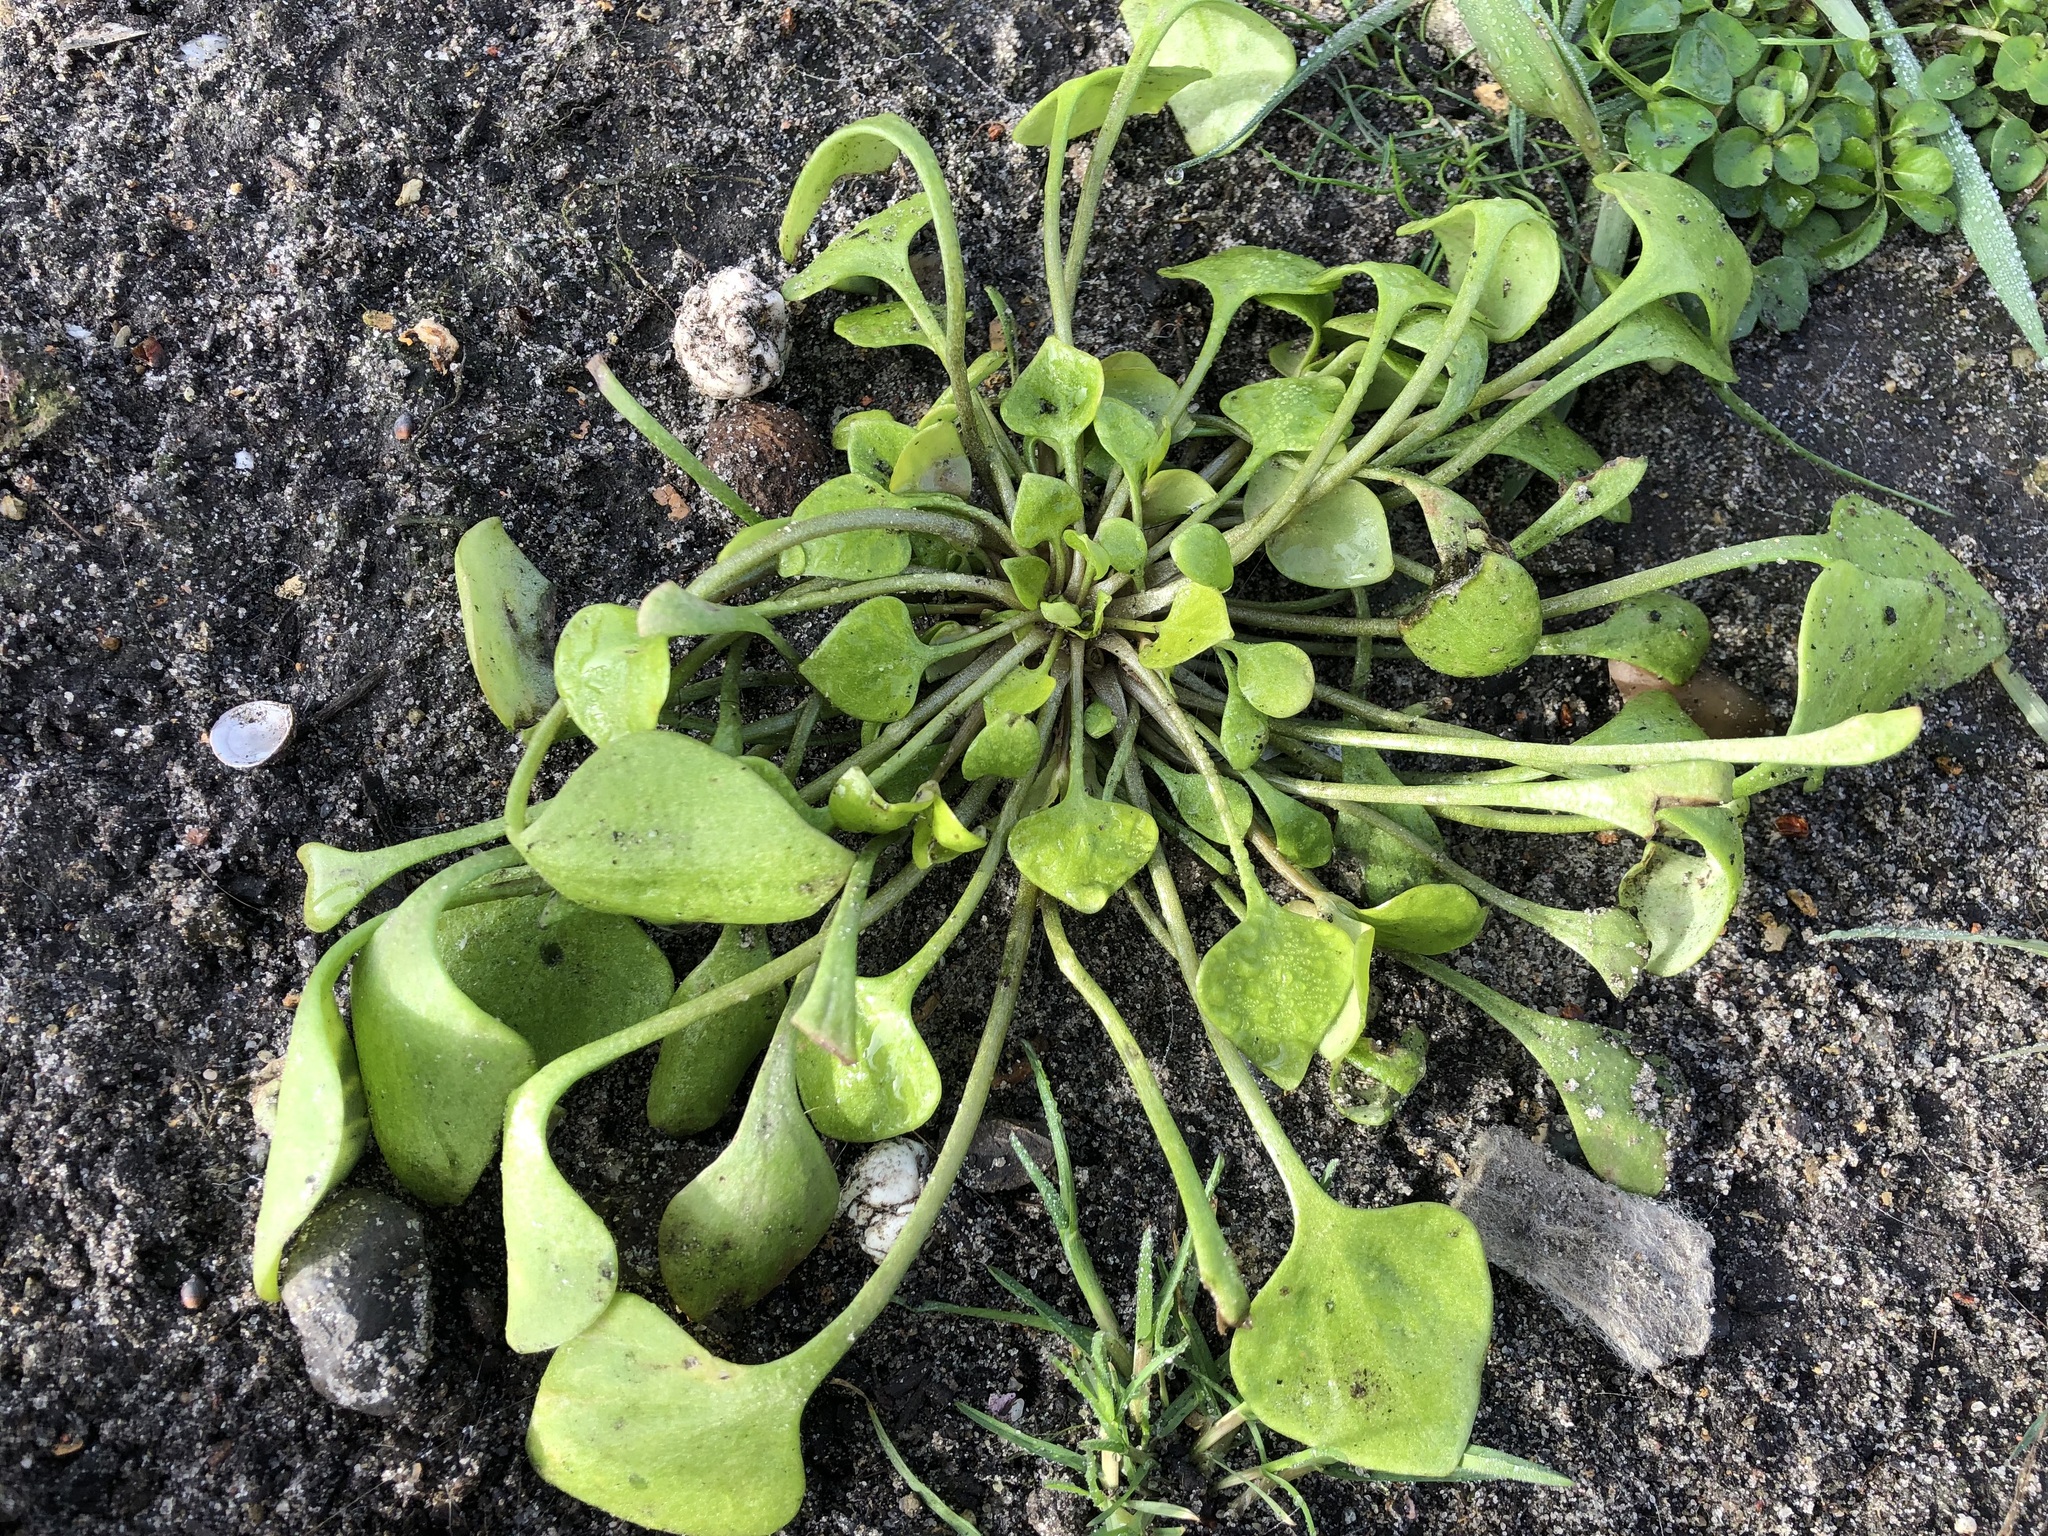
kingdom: Plantae
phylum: Tracheophyta
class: Magnoliopsida
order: Caryophyllales
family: Montiaceae
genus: Claytonia
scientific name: Claytonia perfoliata
